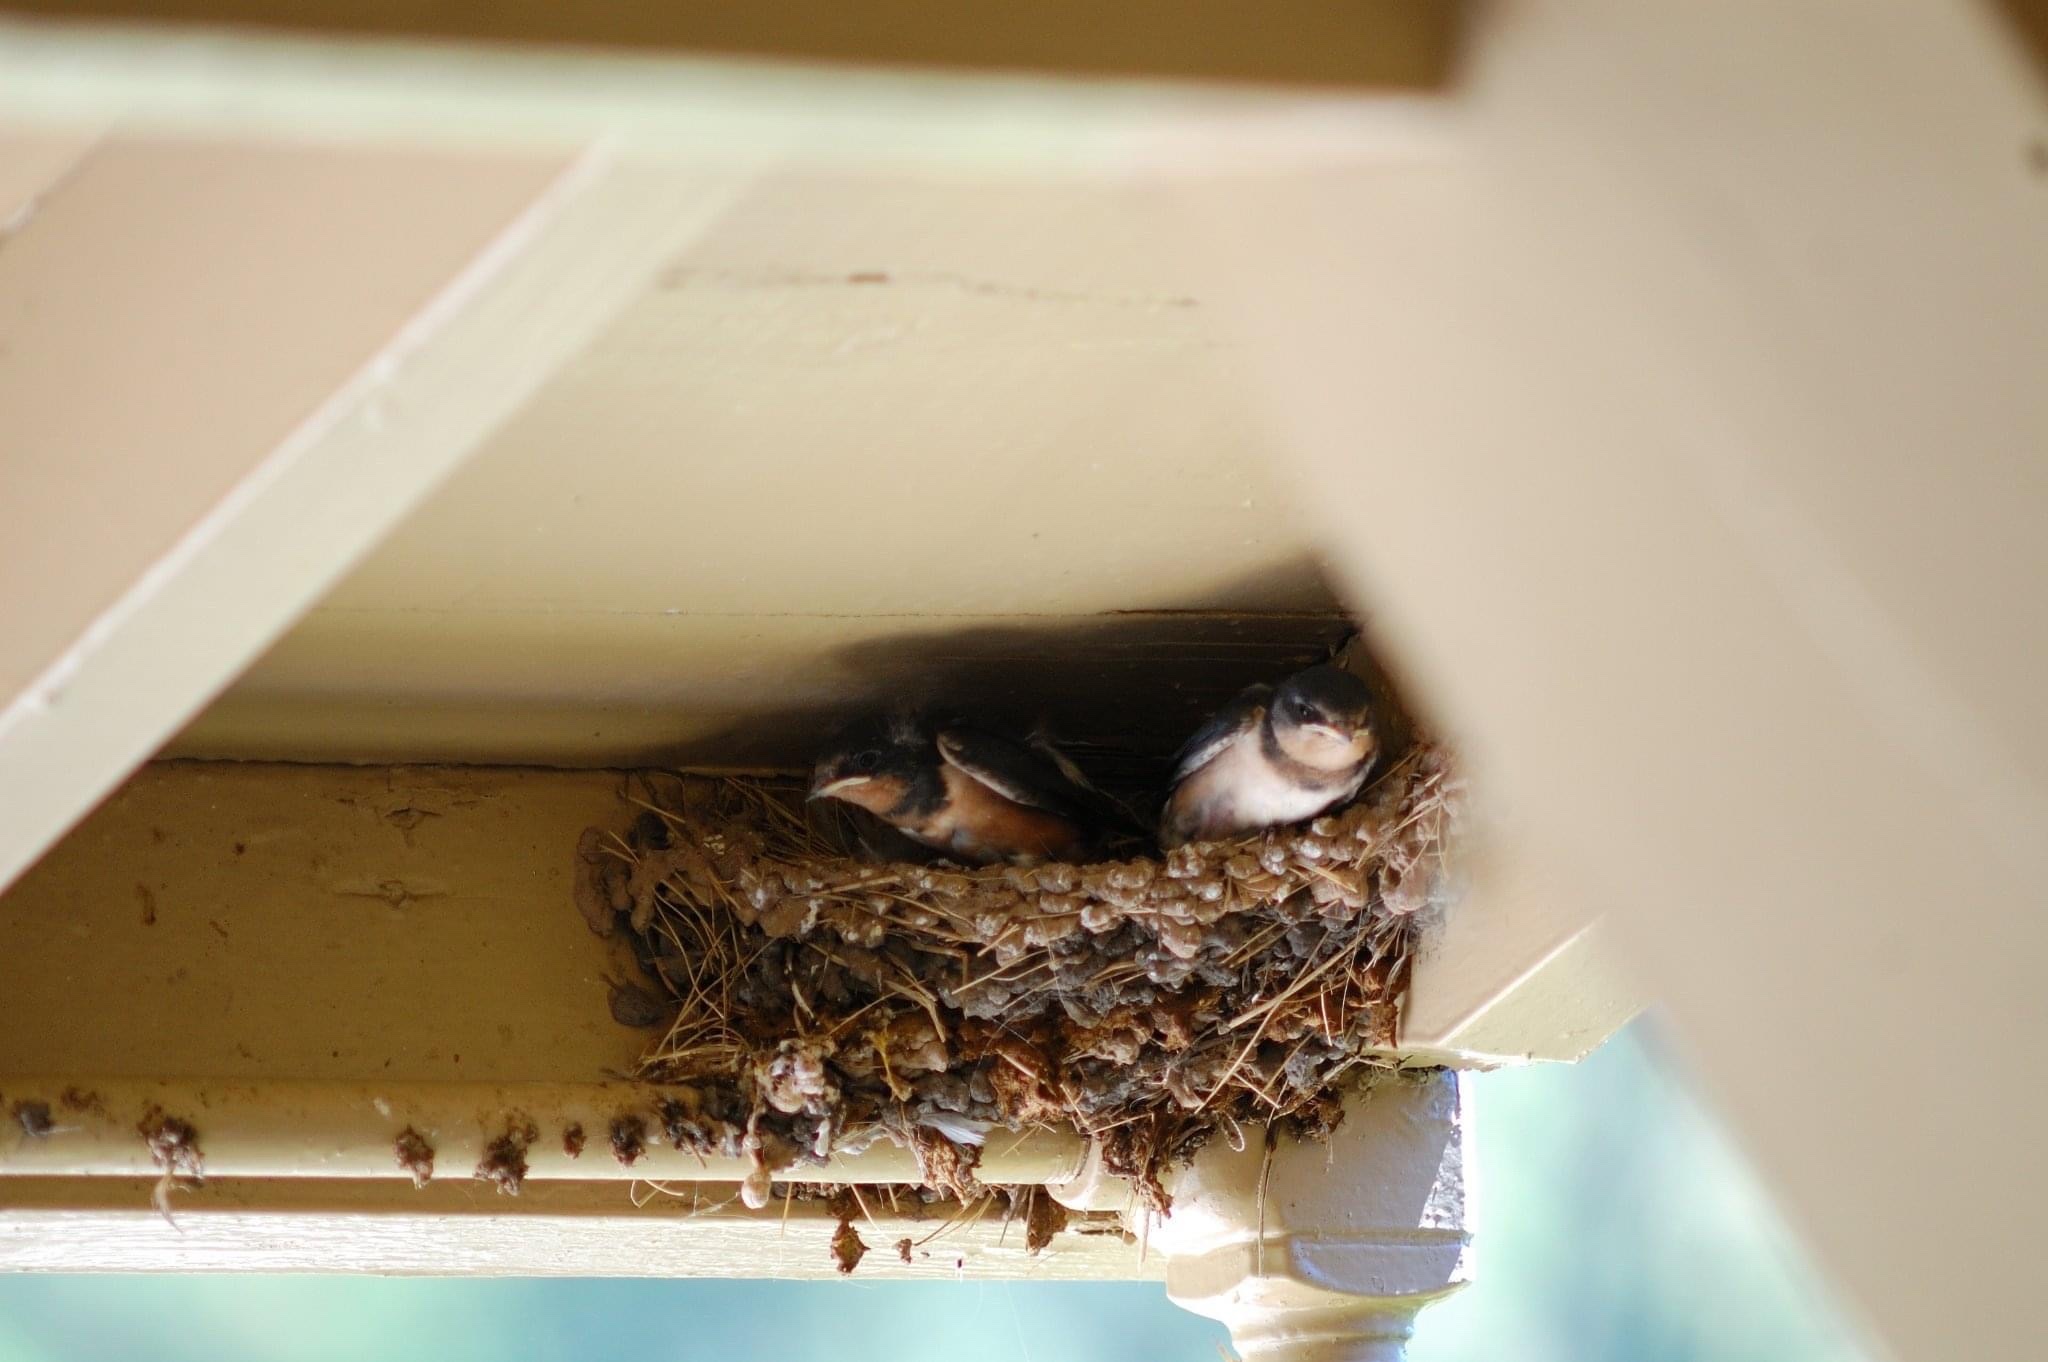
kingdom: Animalia
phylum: Chordata
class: Aves
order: Passeriformes
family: Hirundinidae
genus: Hirundo
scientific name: Hirundo rustica
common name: Barn swallow
